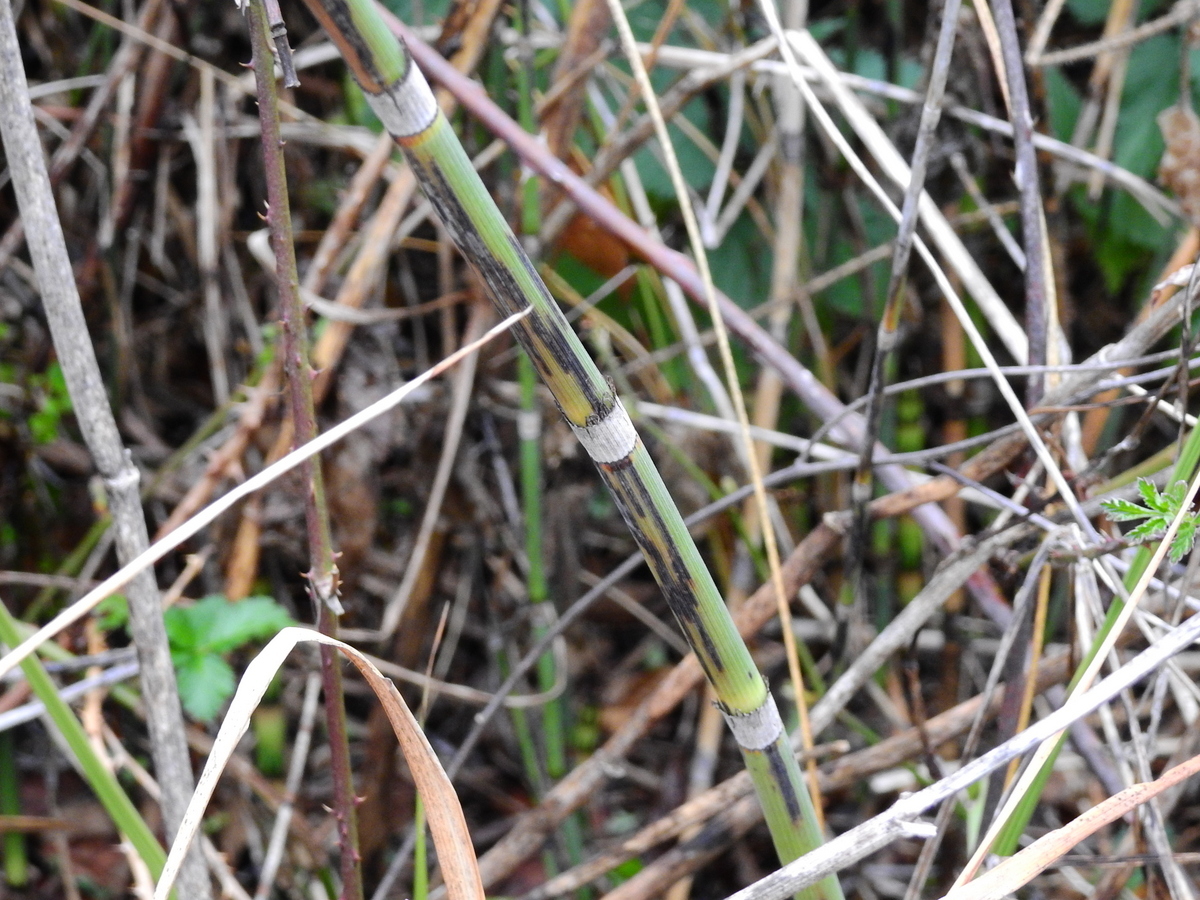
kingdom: Plantae
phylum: Tracheophyta
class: Polypodiopsida
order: Equisetales
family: Equisetaceae
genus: Equisetum
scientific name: Equisetum giganteum
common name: Giant horsetail
